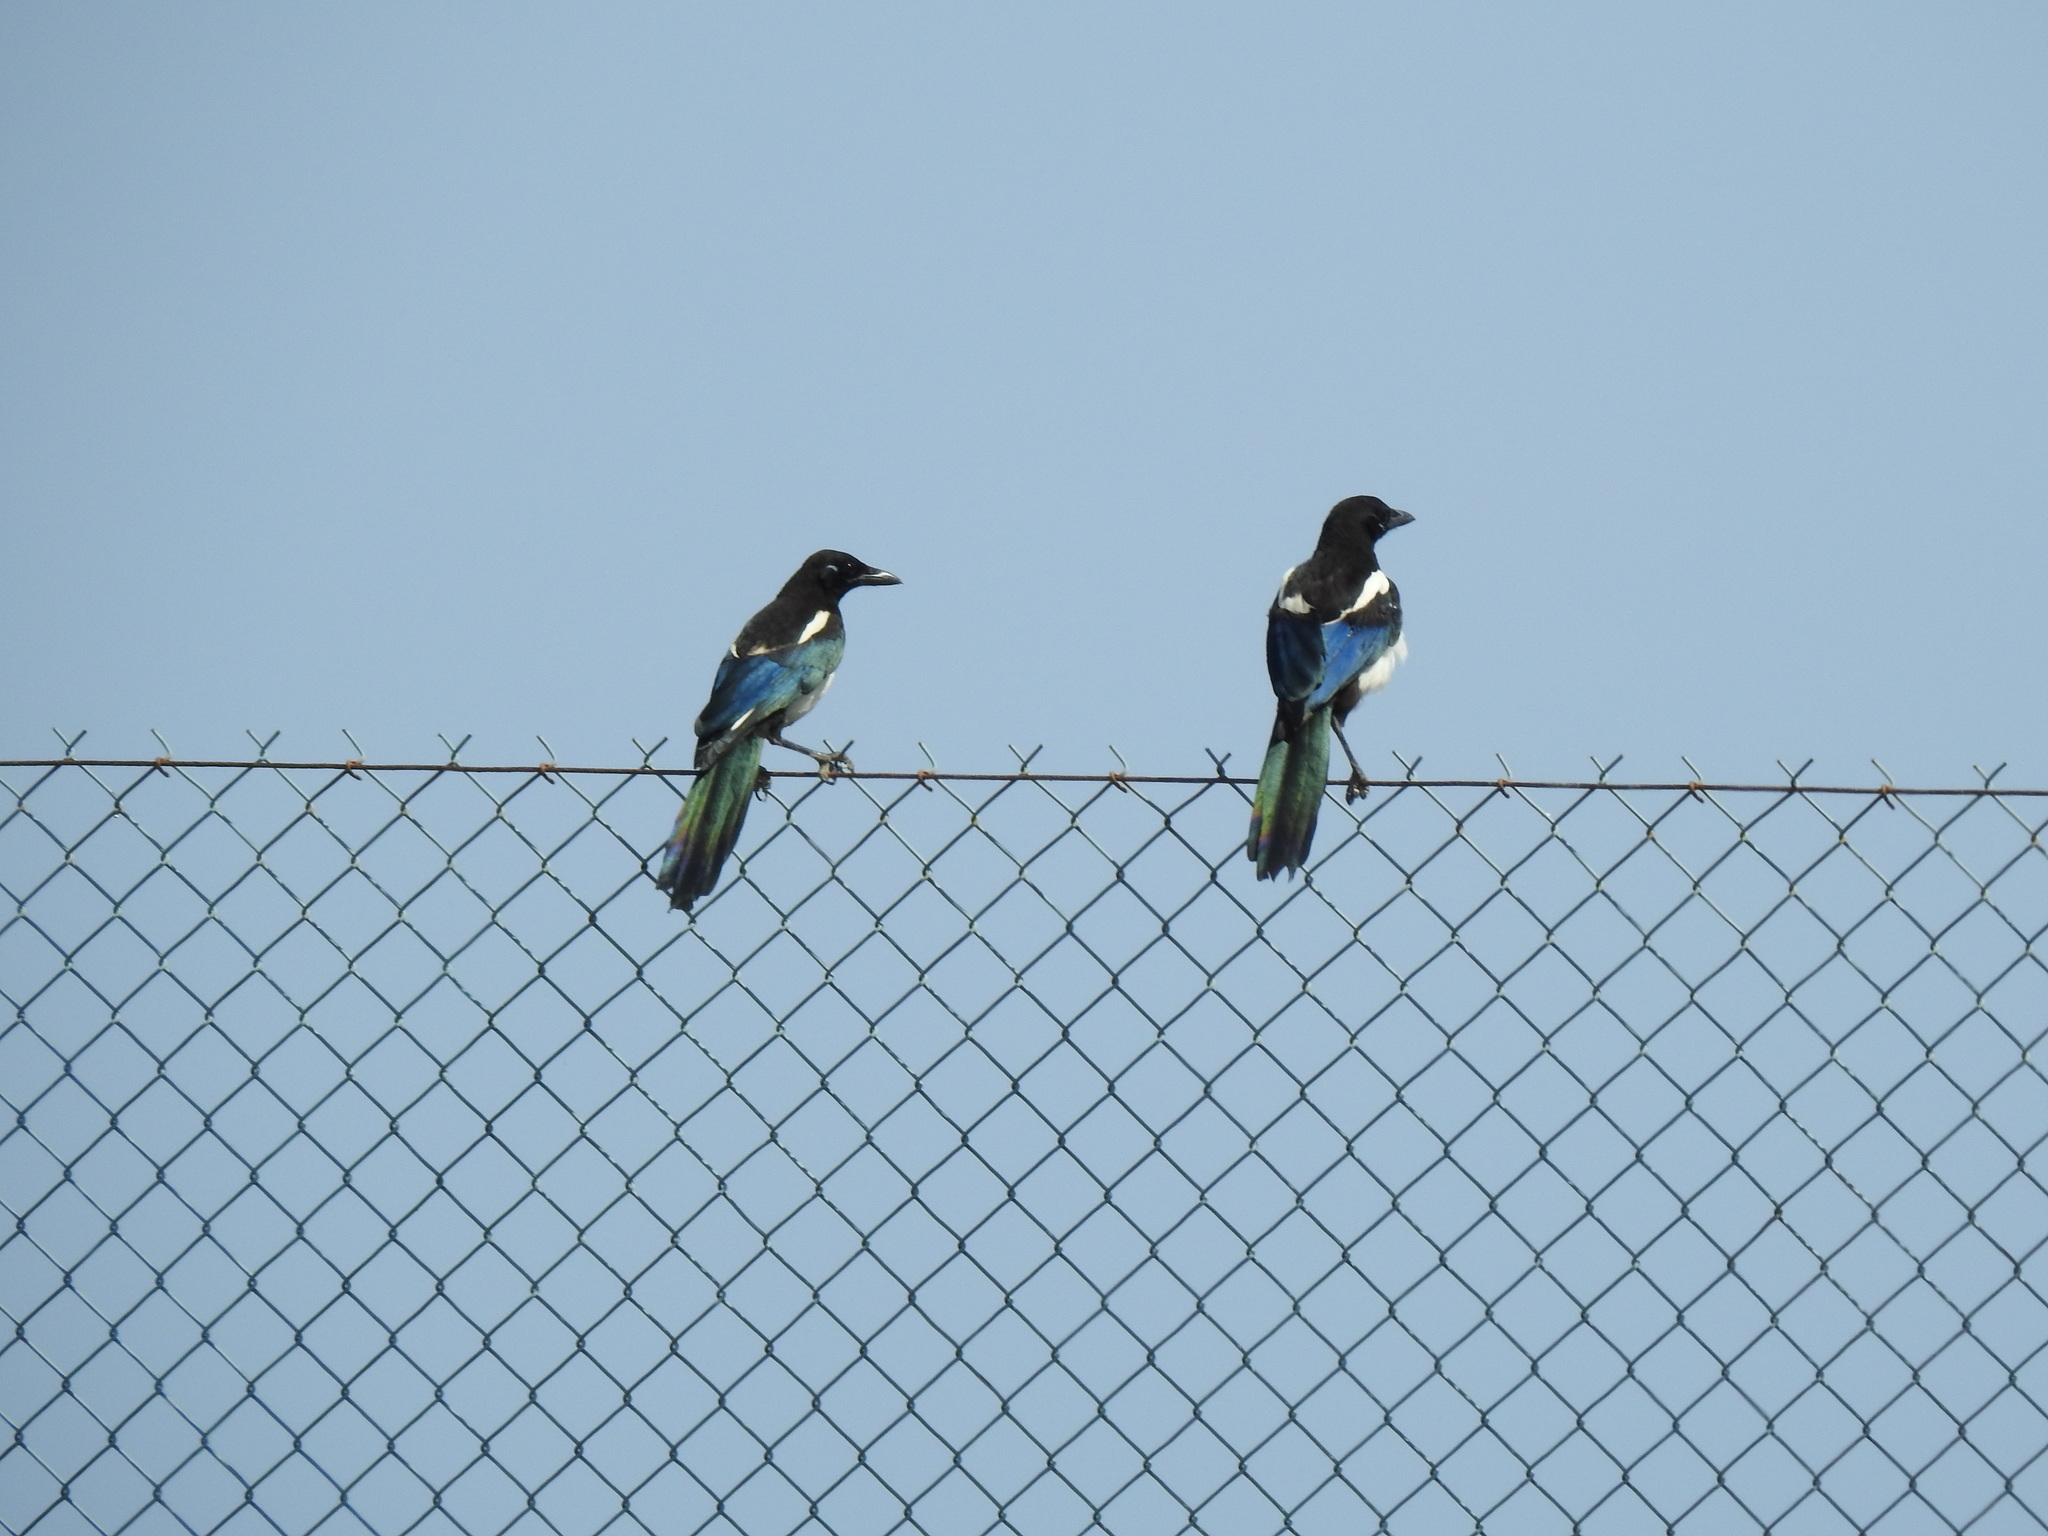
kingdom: Animalia
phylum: Chordata
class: Aves
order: Passeriformes
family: Corvidae
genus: Pica
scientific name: Pica pica
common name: Eurasian magpie
